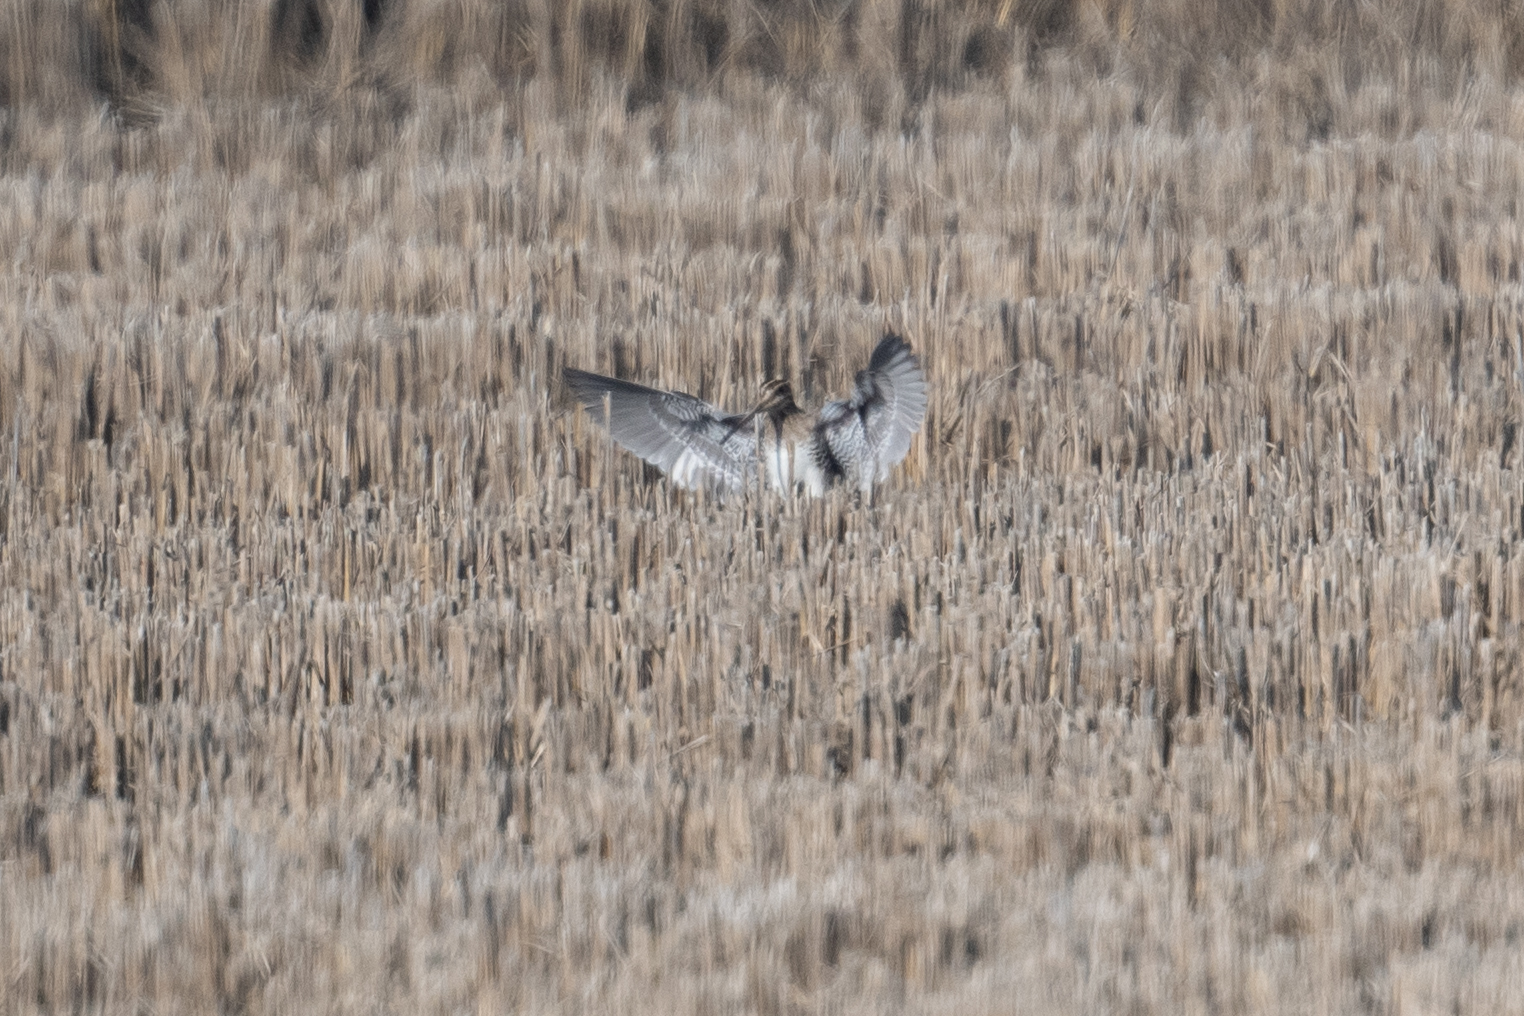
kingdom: Animalia
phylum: Chordata
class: Aves
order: Charadriiformes
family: Scolopacidae
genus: Gallinago
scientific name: Gallinago delicata
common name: Wilson's snipe
